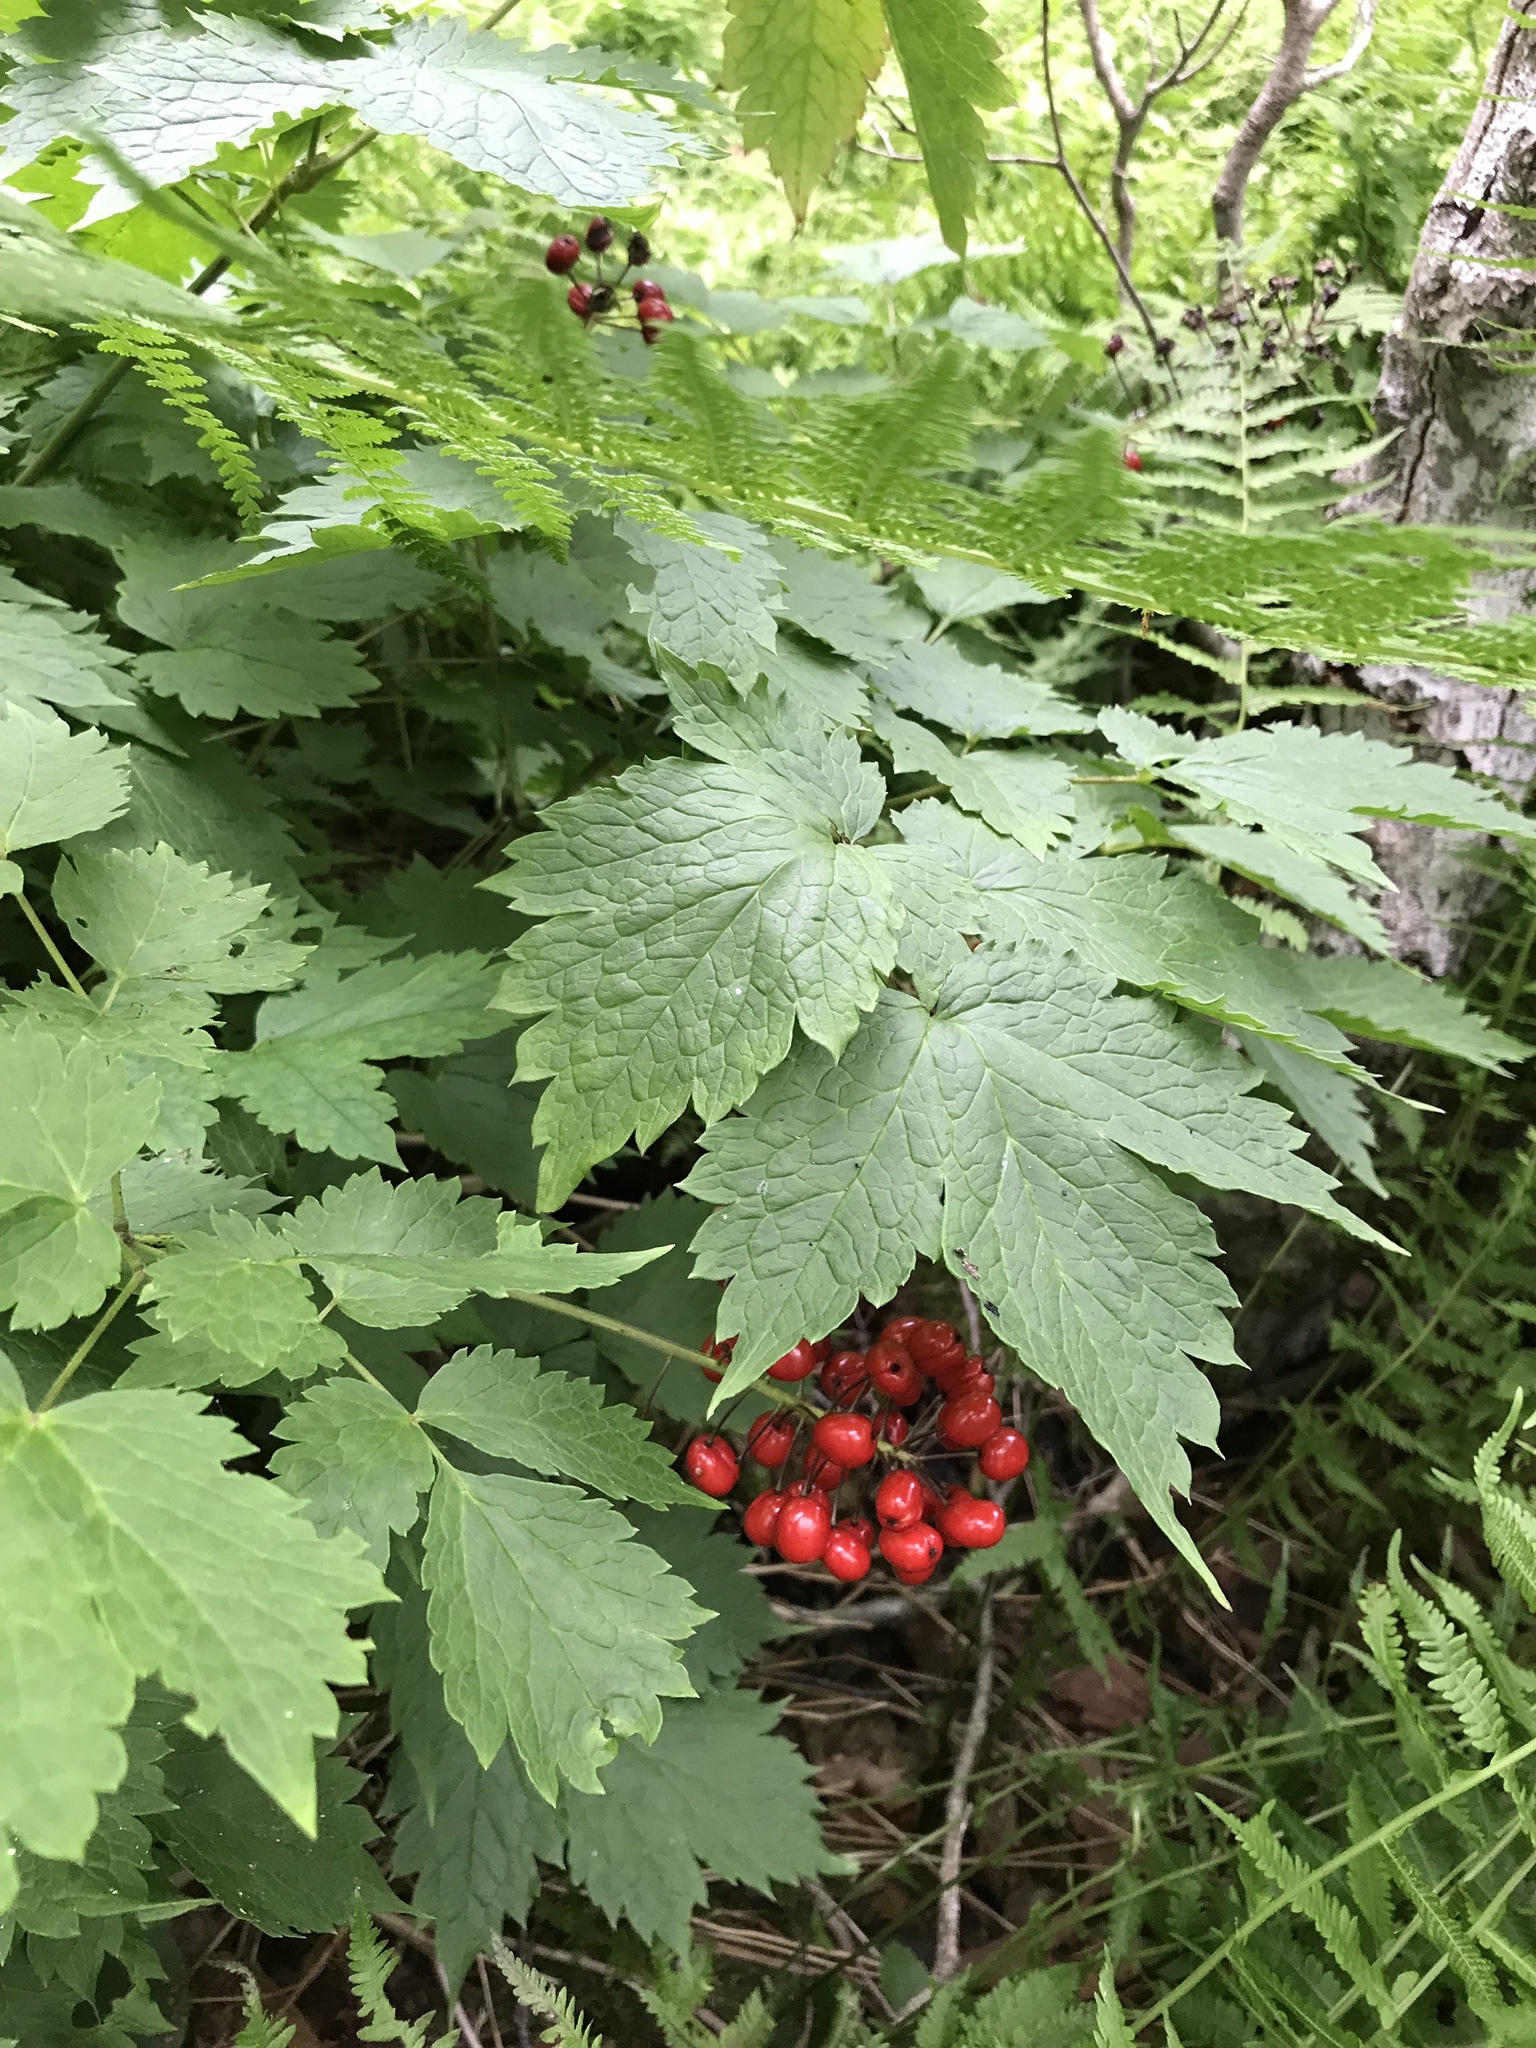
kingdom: Plantae
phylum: Tracheophyta
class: Magnoliopsida
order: Ranunculales
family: Ranunculaceae
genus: Actaea
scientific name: Actaea rubra
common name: Red baneberry
